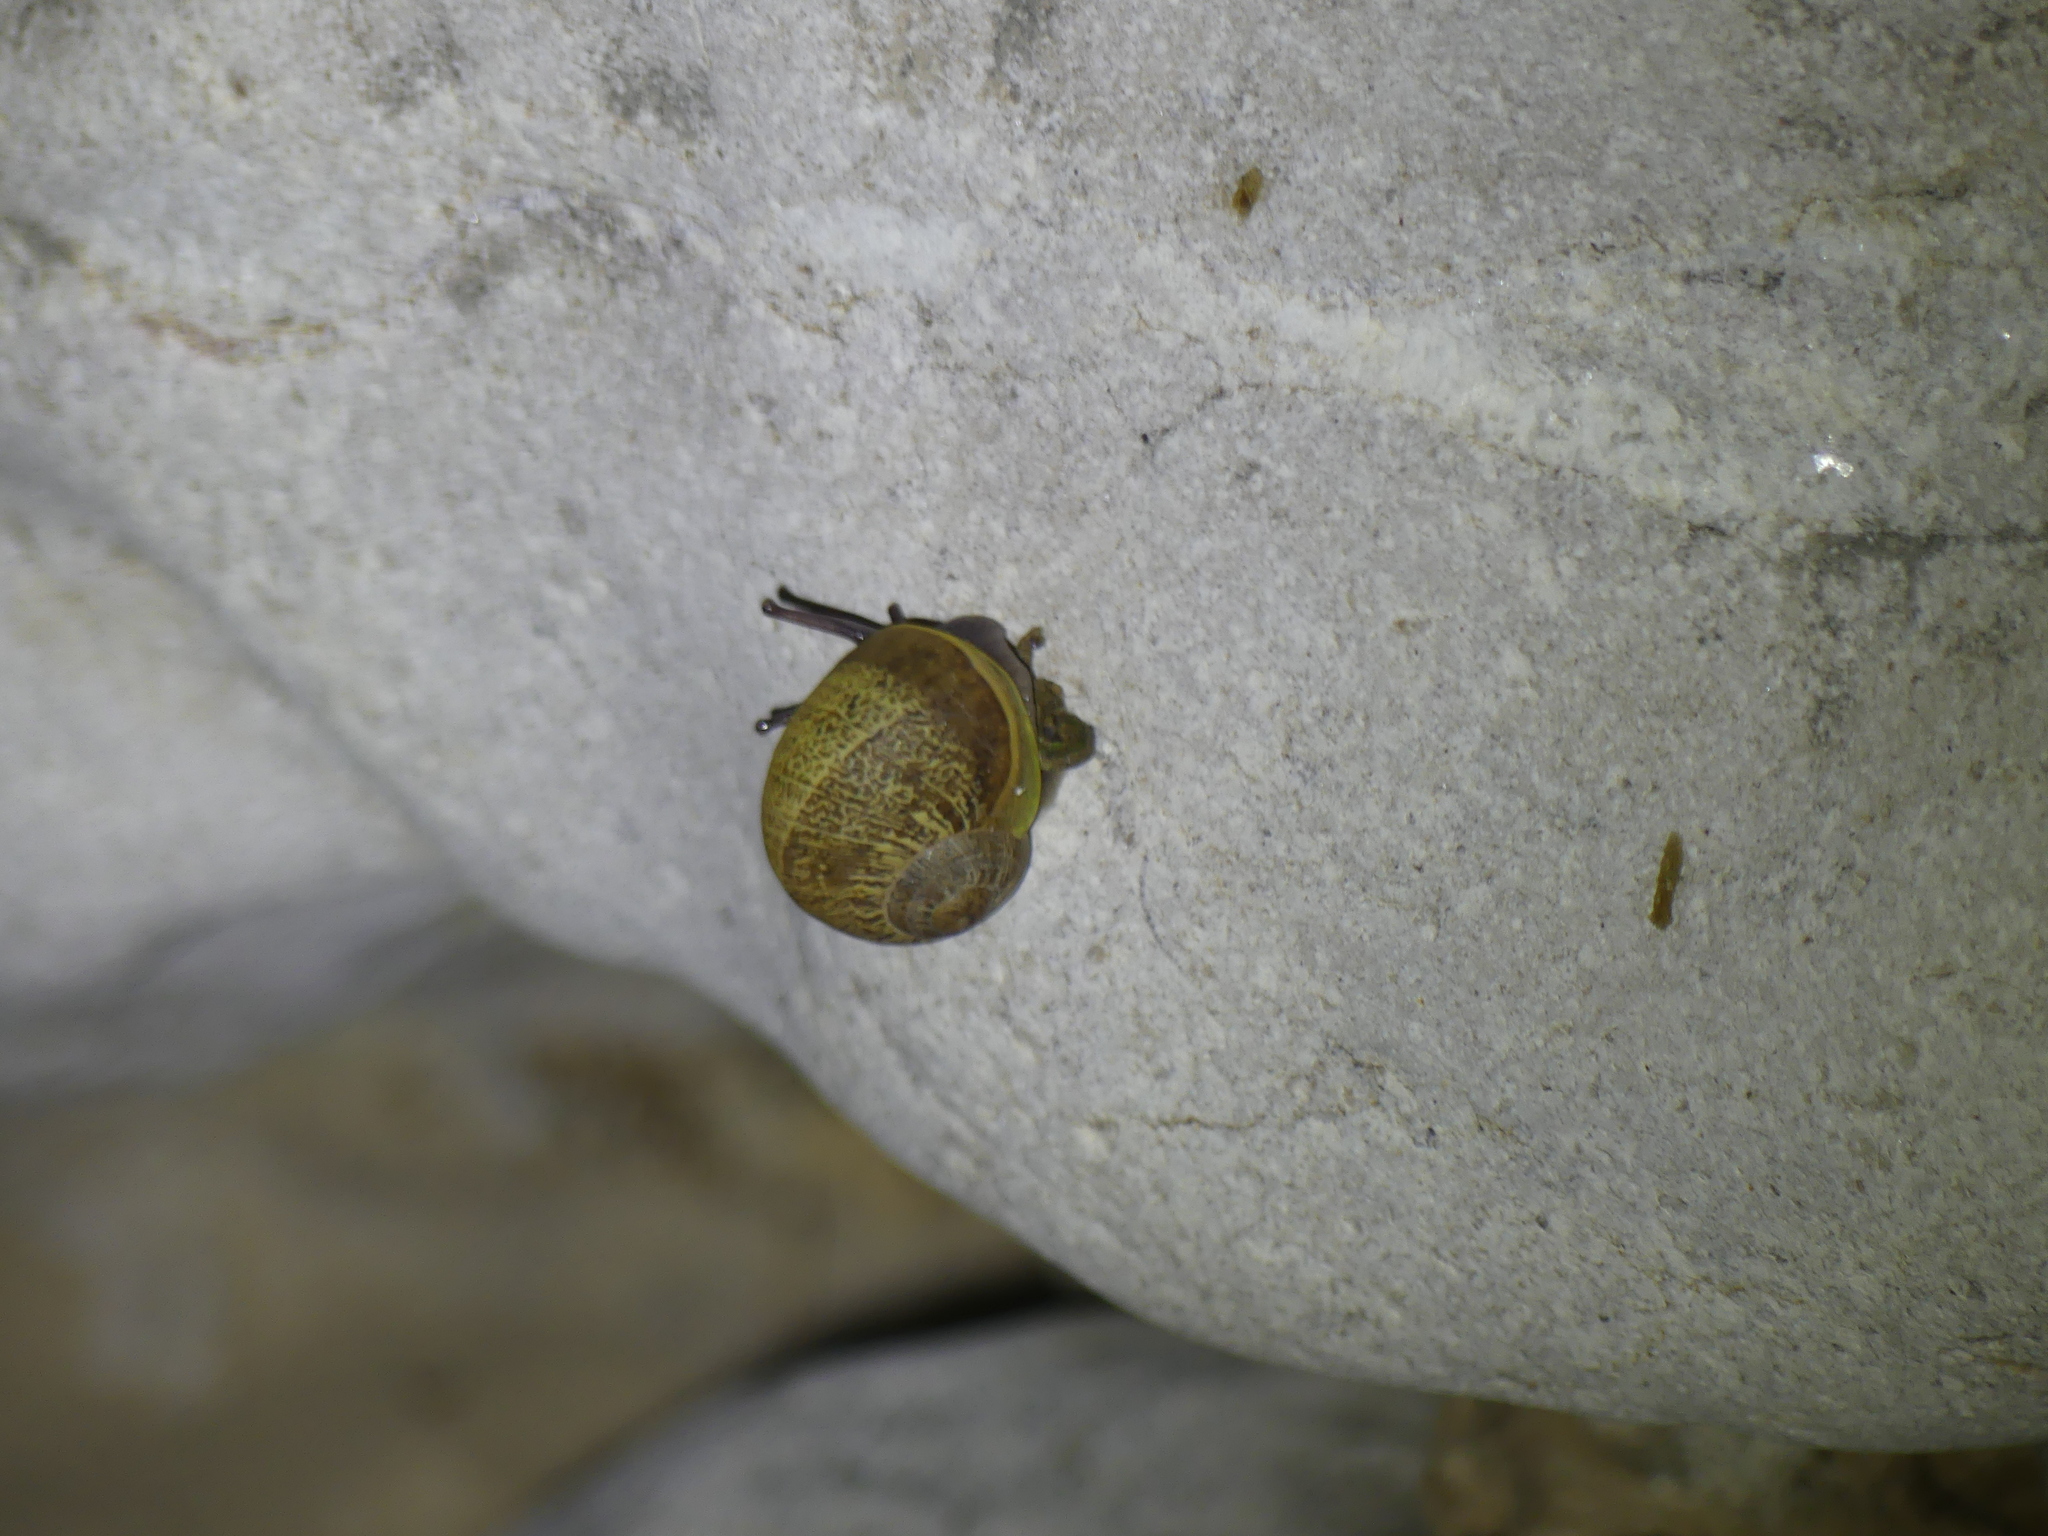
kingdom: Animalia
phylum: Mollusca
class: Gastropoda
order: Stylommatophora
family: Helicidae
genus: Cornu
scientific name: Cornu aspersum
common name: Brown garden snail
